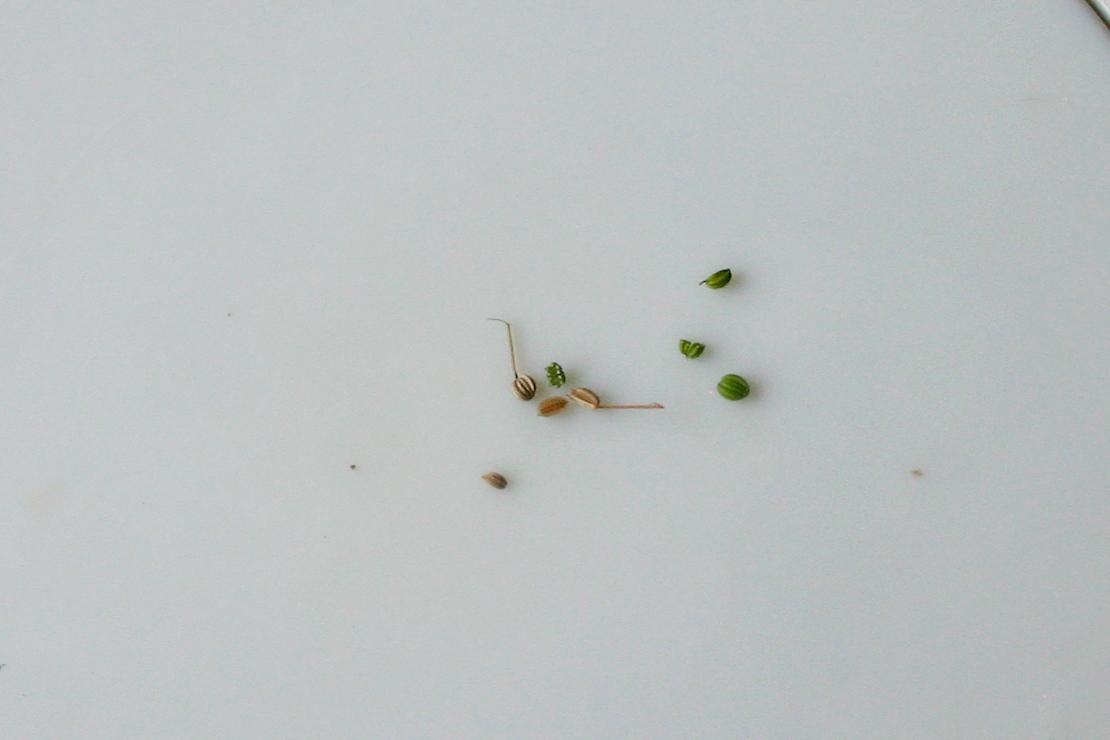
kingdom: Plantae
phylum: Tracheophyta
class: Magnoliopsida
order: Apiales
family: Apiaceae
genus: Cyclospermum
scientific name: Cyclospermum leptophyllum
